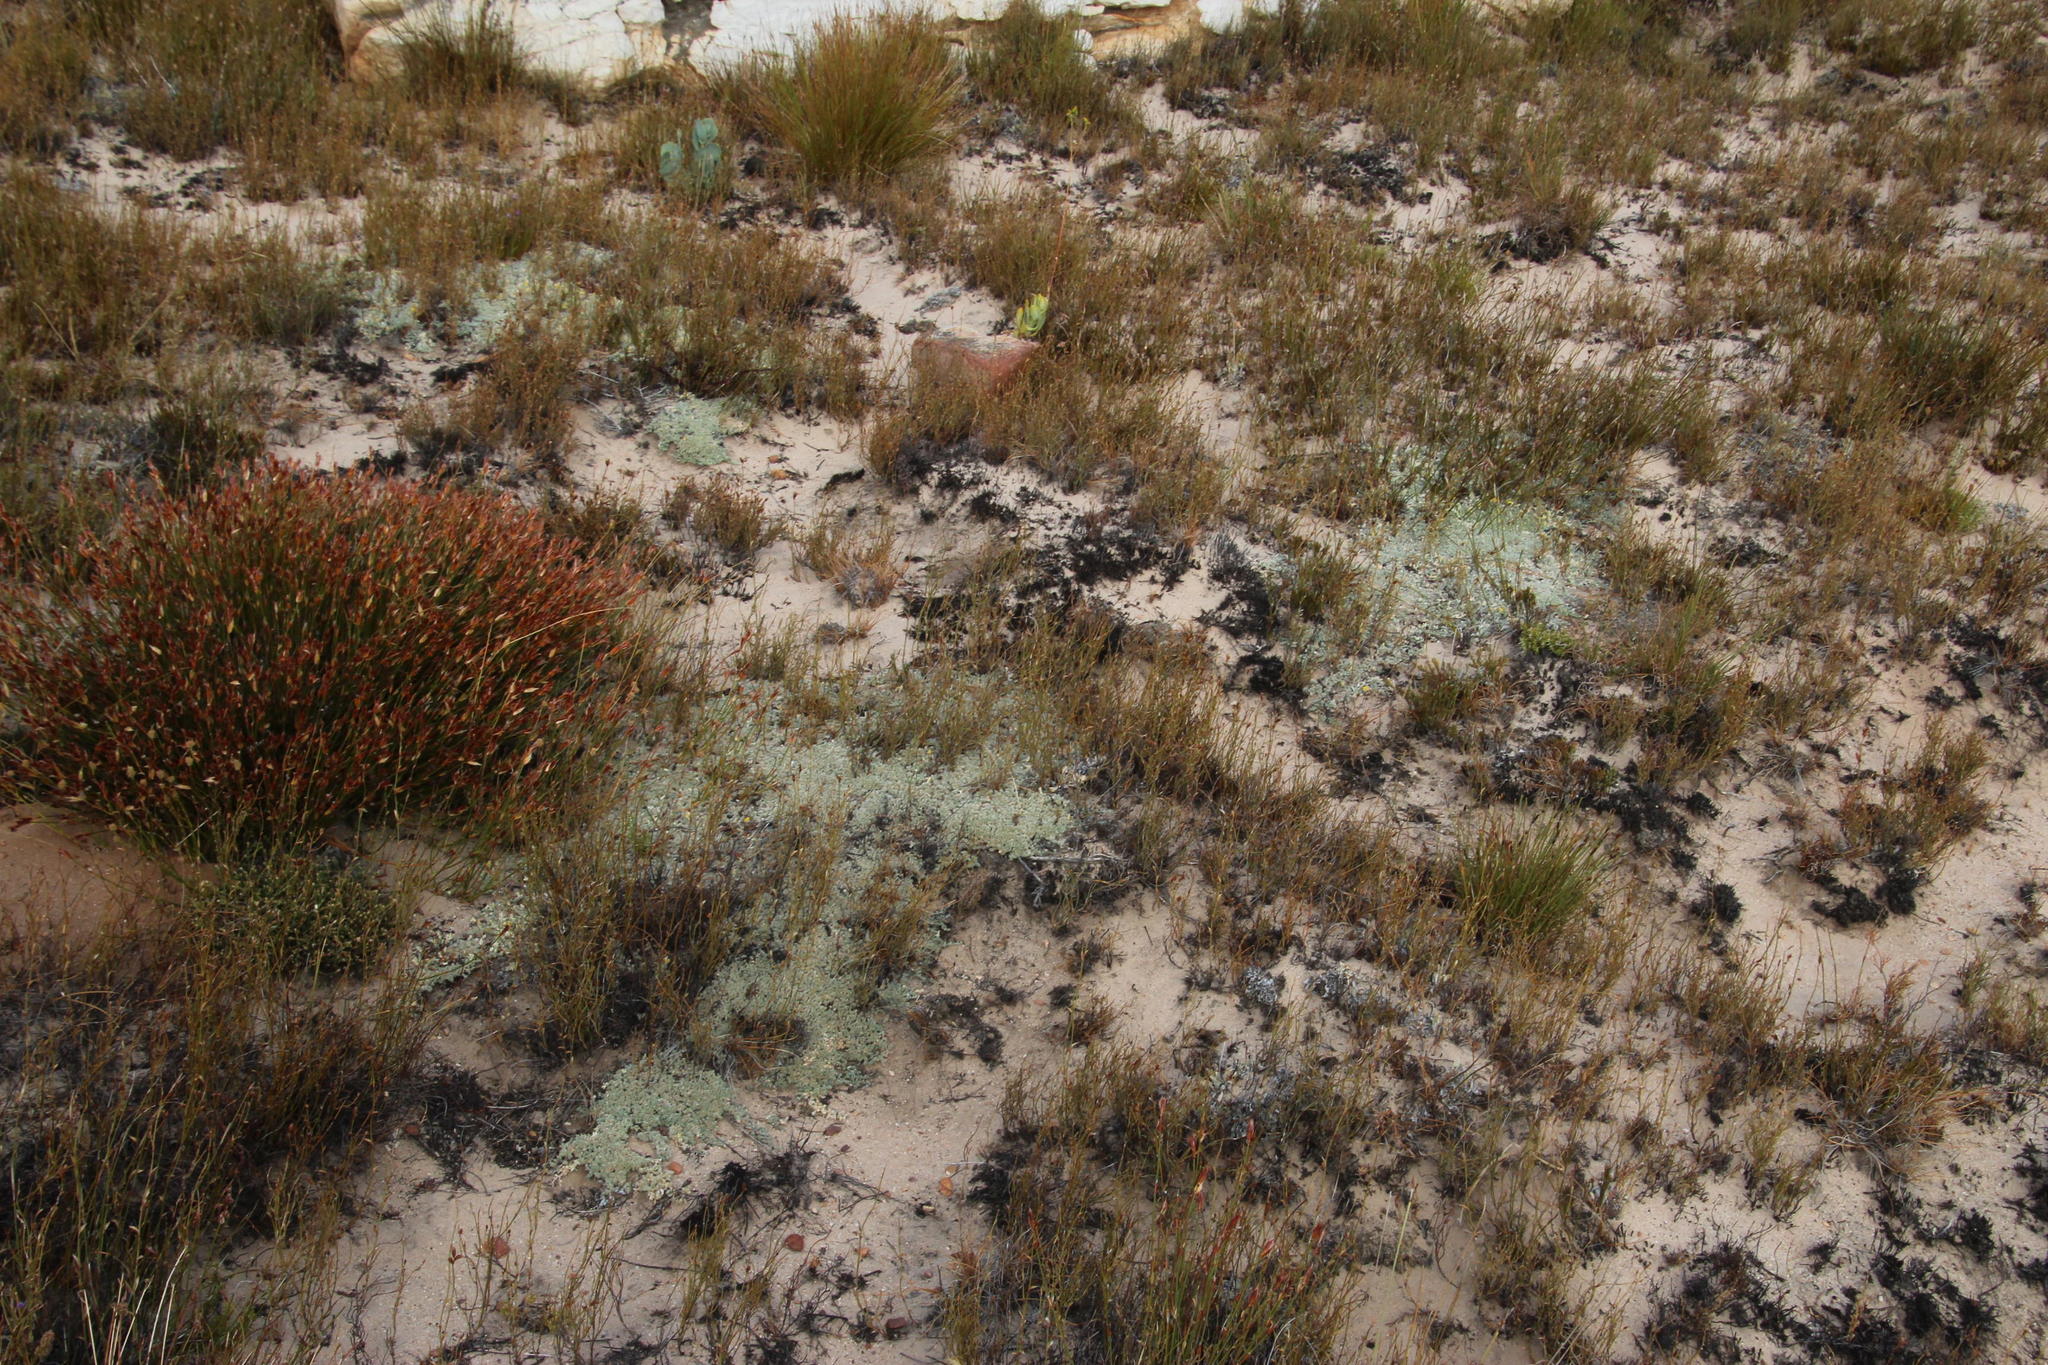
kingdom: Plantae
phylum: Tracheophyta
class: Magnoliopsida
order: Fabales
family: Fabaceae
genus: Aspalathus
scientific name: Aspalathus bodkinii
